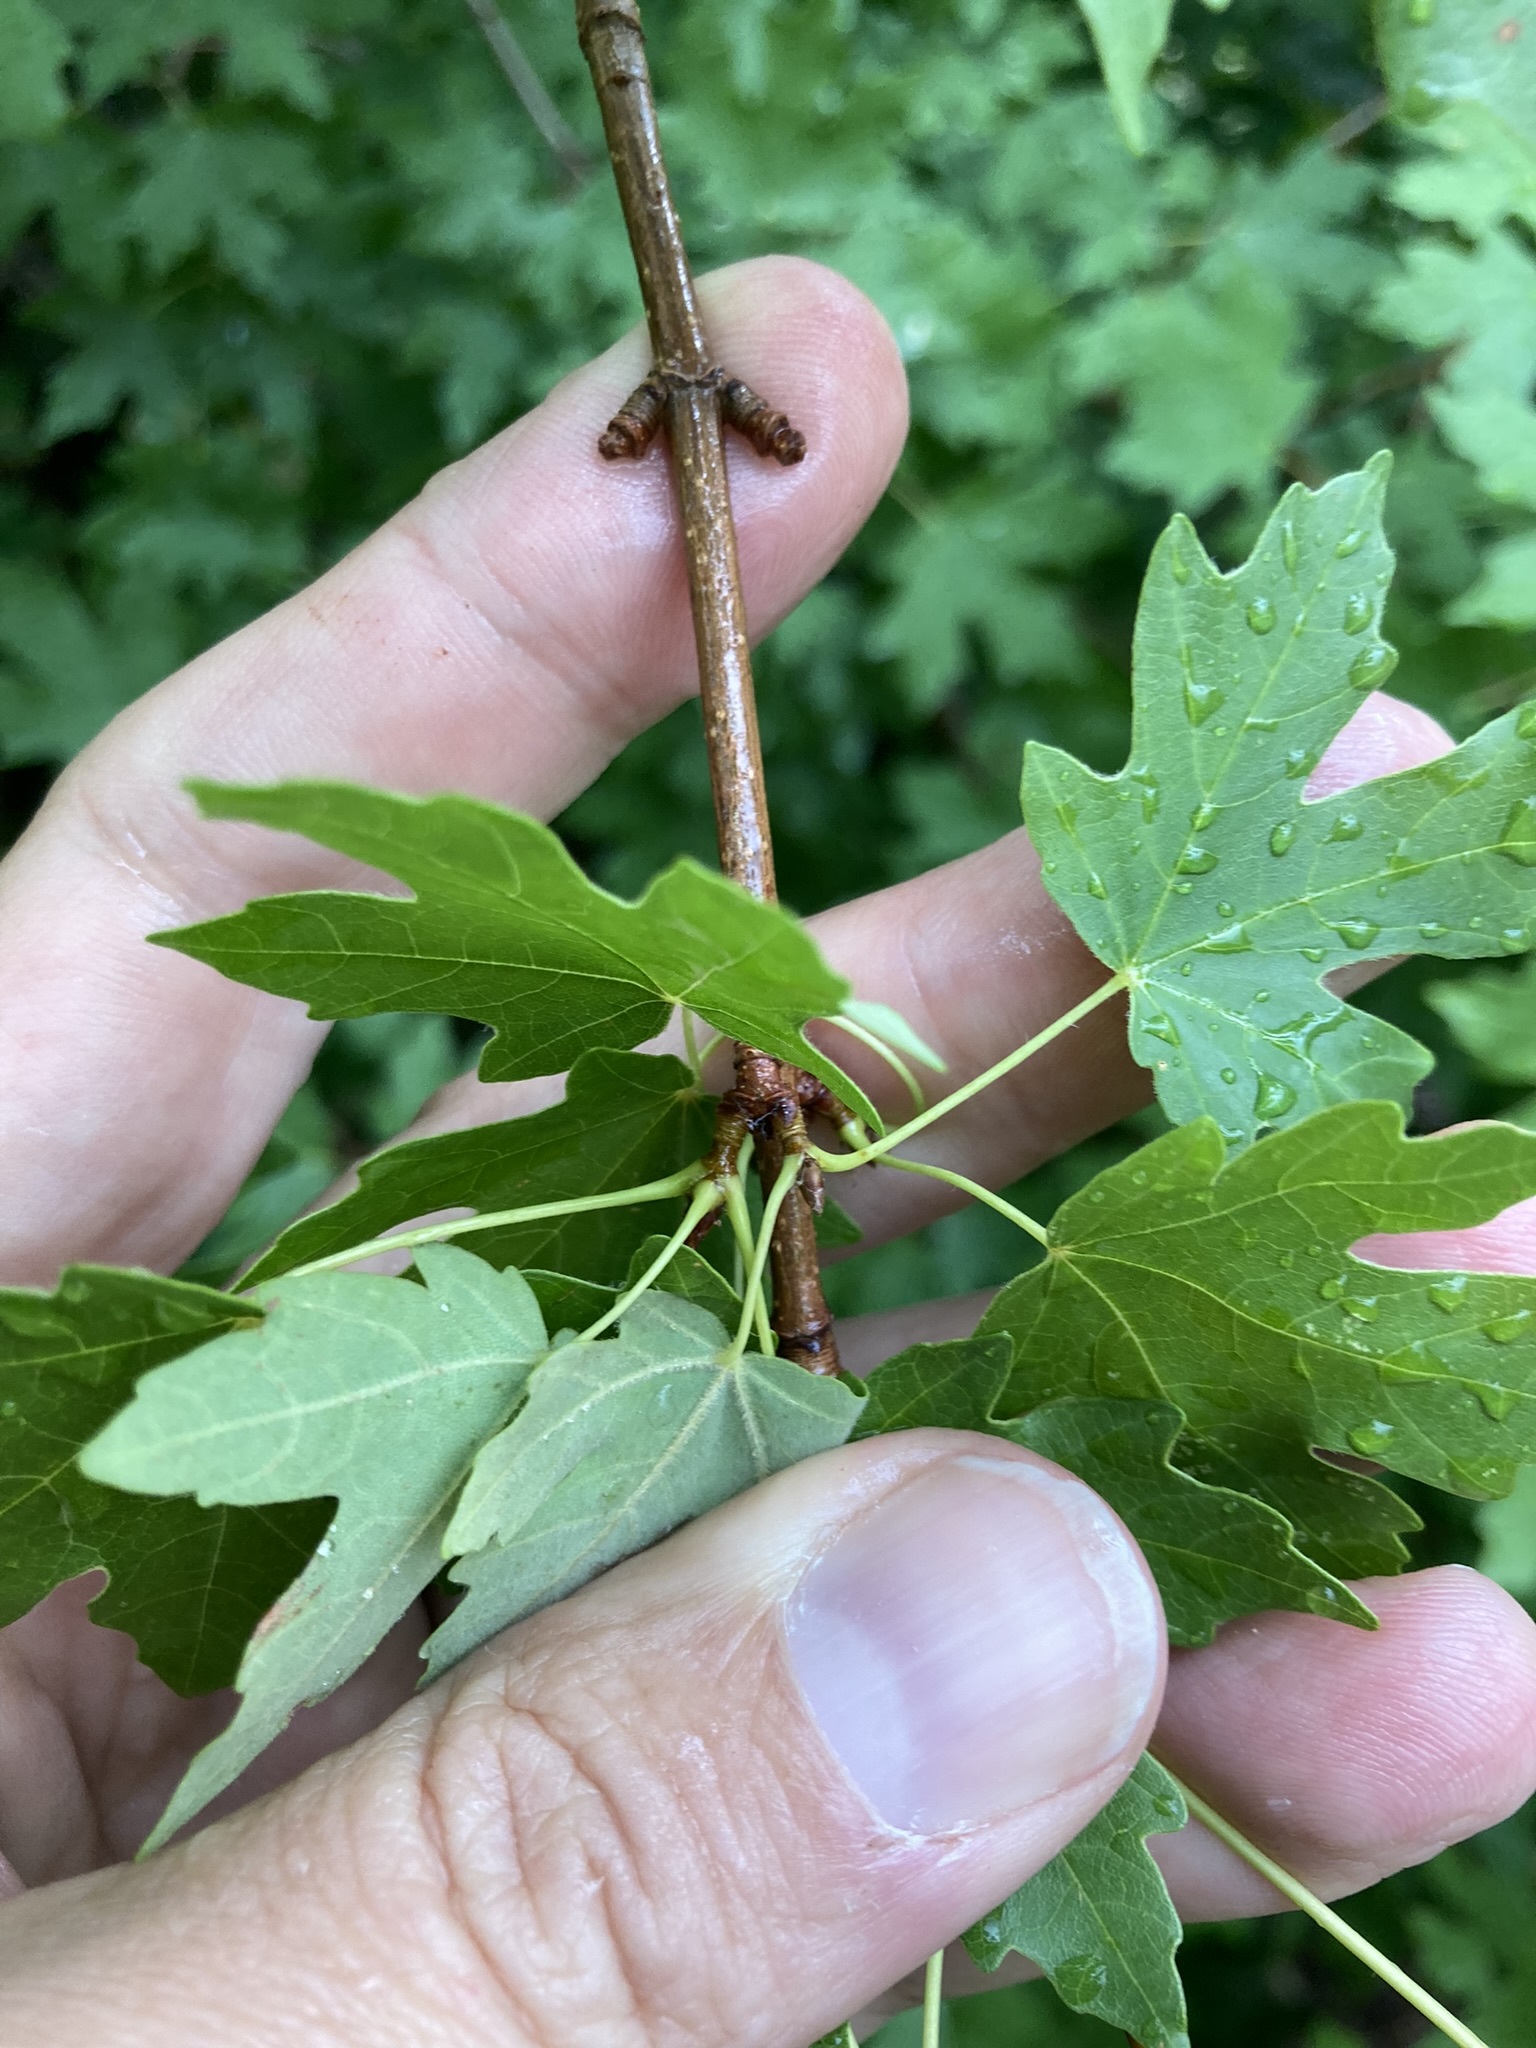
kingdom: Plantae
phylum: Tracheophyta
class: Magnoliopsida
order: Sapindales
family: Sapindaceae
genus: Acer
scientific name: Acer grandidentatum
